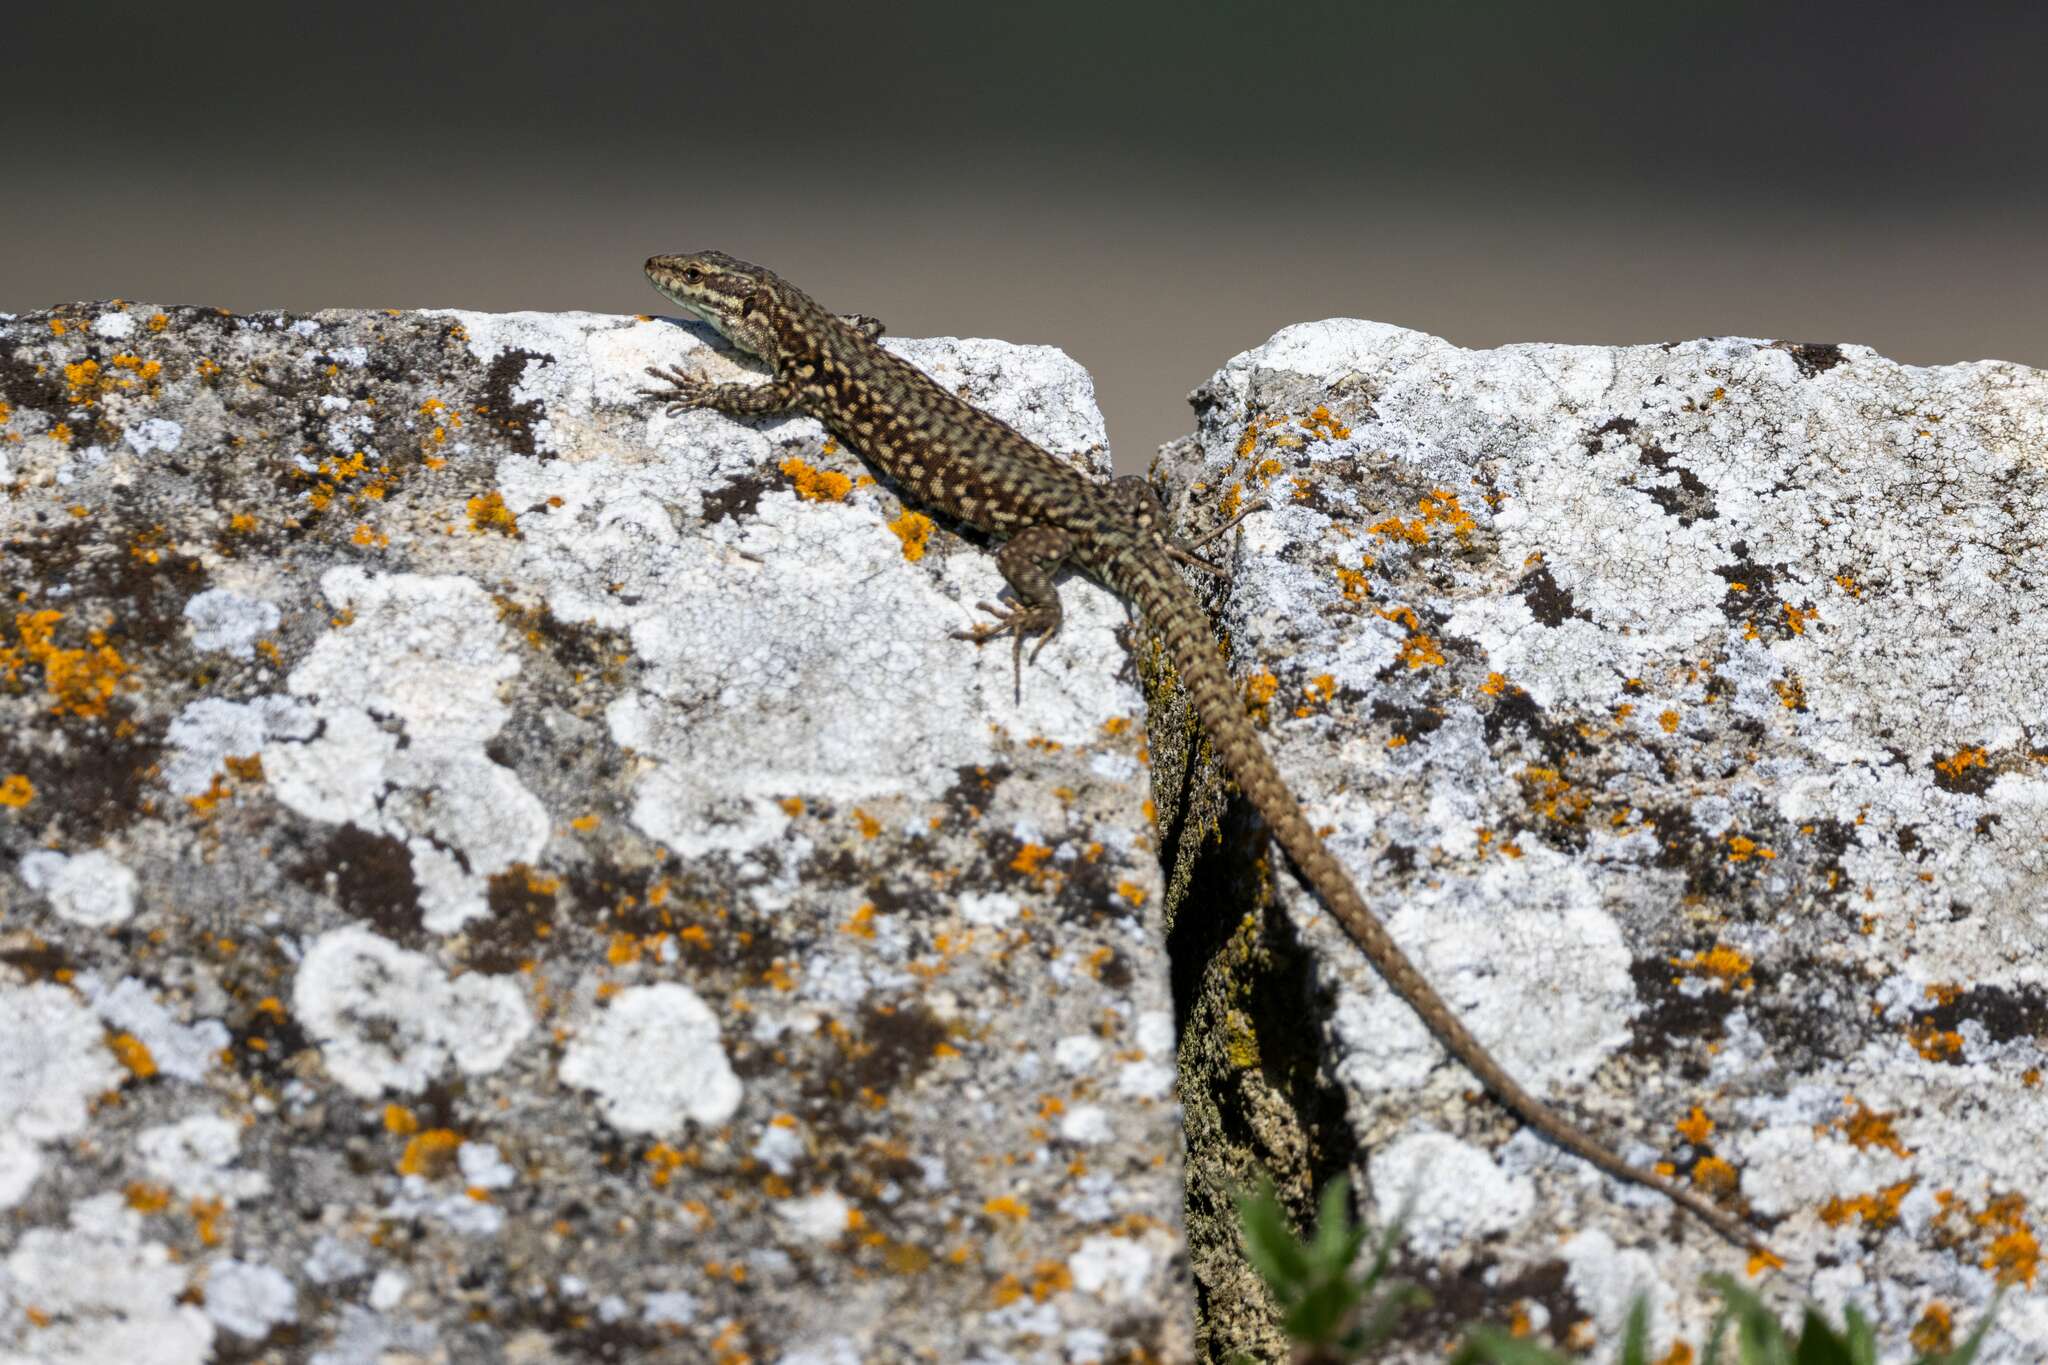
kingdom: Animalia
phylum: Chordata
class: Squamata
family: Lacertidae
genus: Podarcis
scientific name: Podarcis muralis
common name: Common wall lizard
